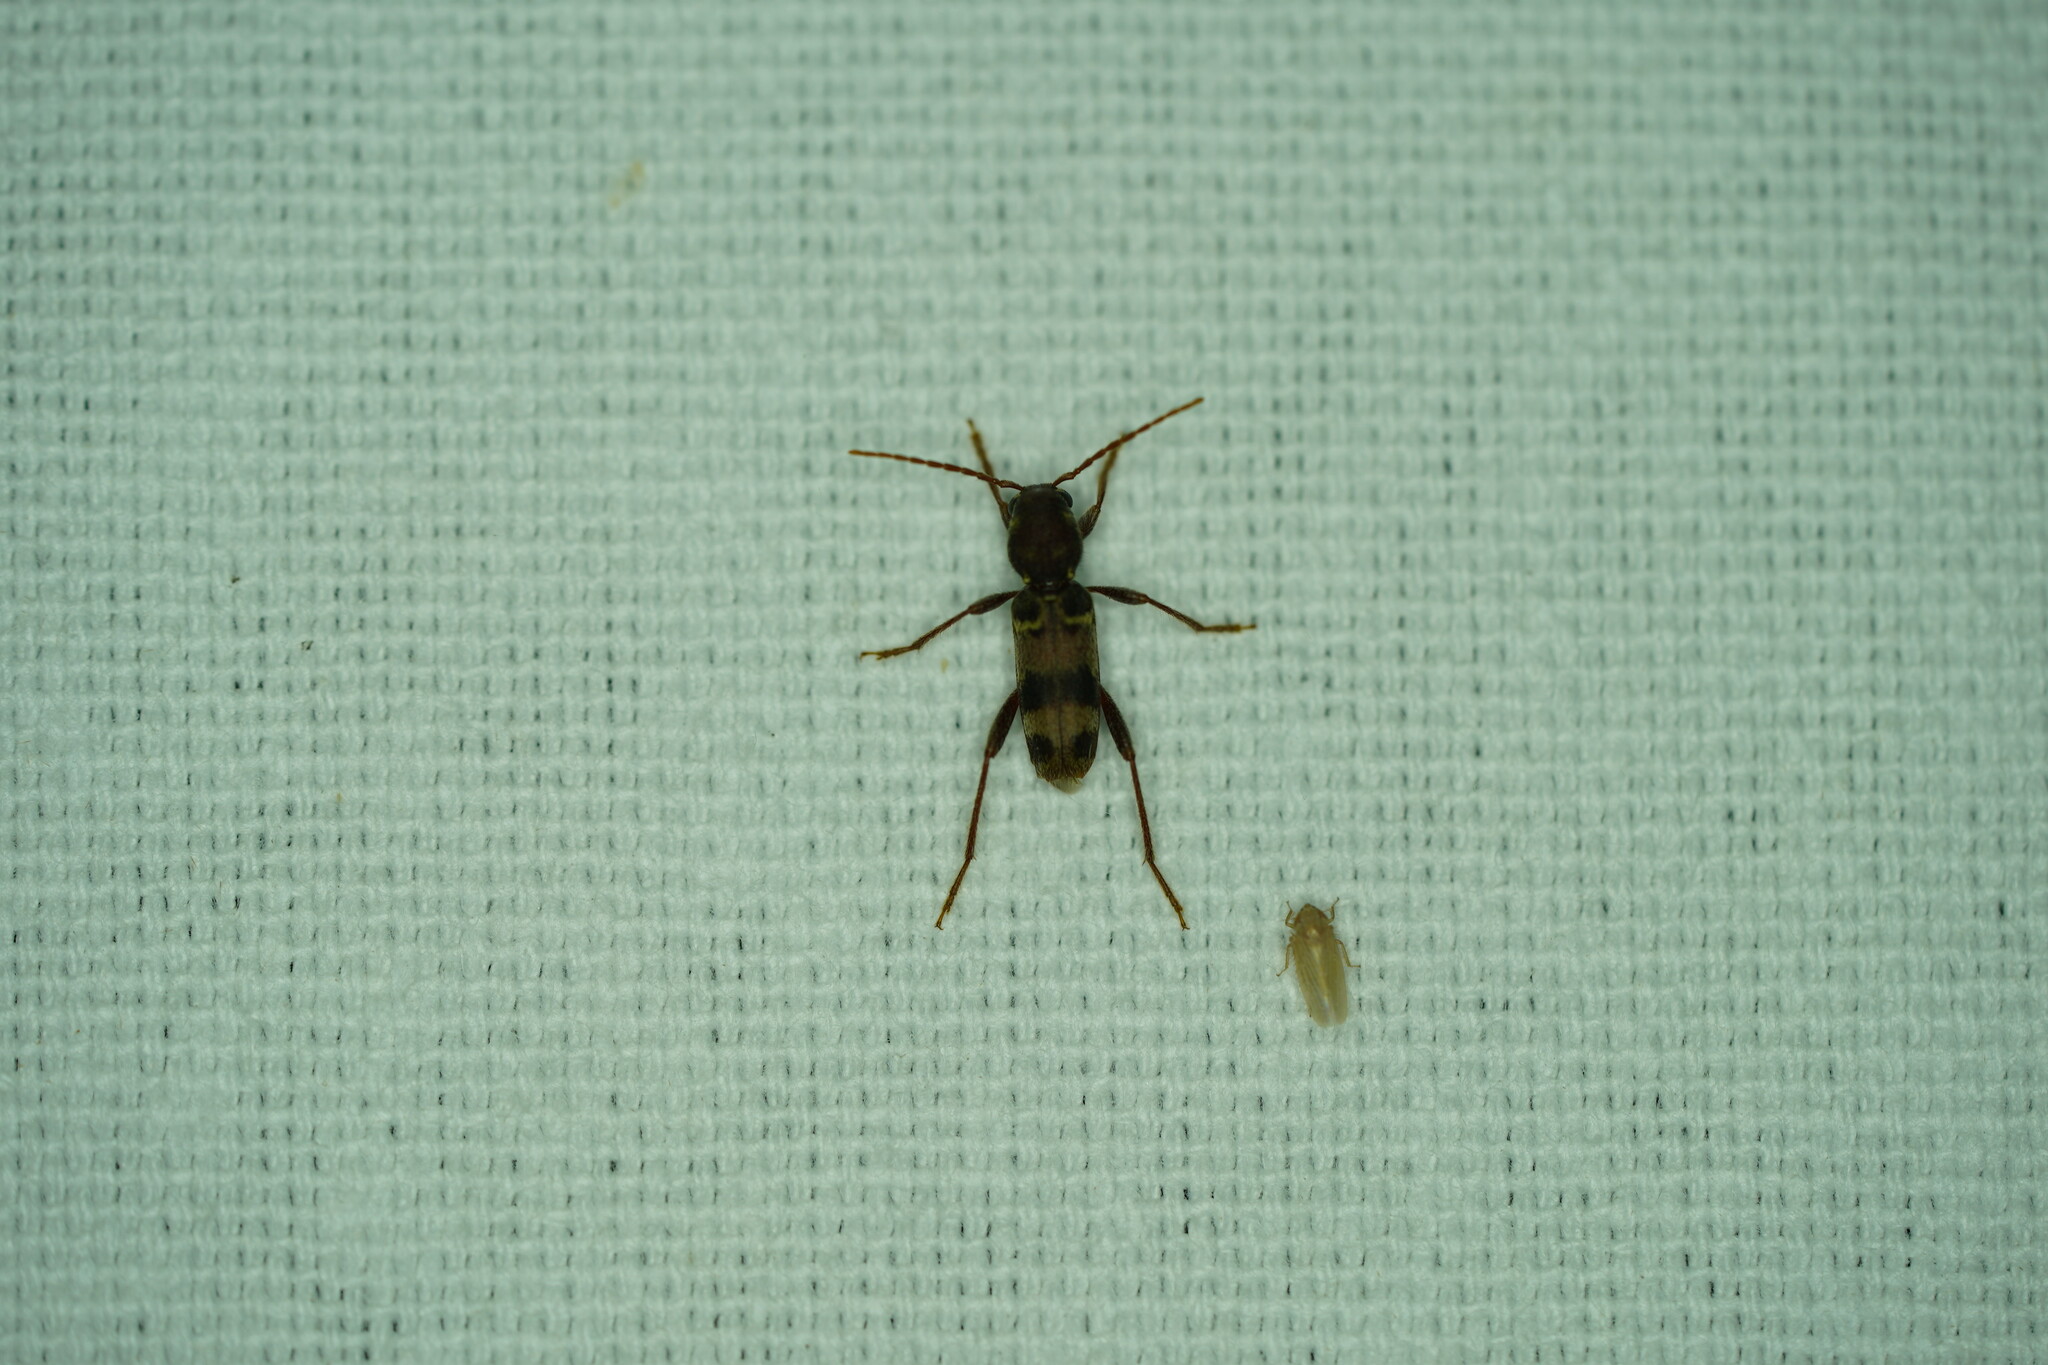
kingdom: Animalia
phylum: Arthropoda
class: Insecta
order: Coleoptera
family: Cerambycidae
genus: Xylotrechus
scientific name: Xylotrechus colonus
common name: Long-horned beetle
